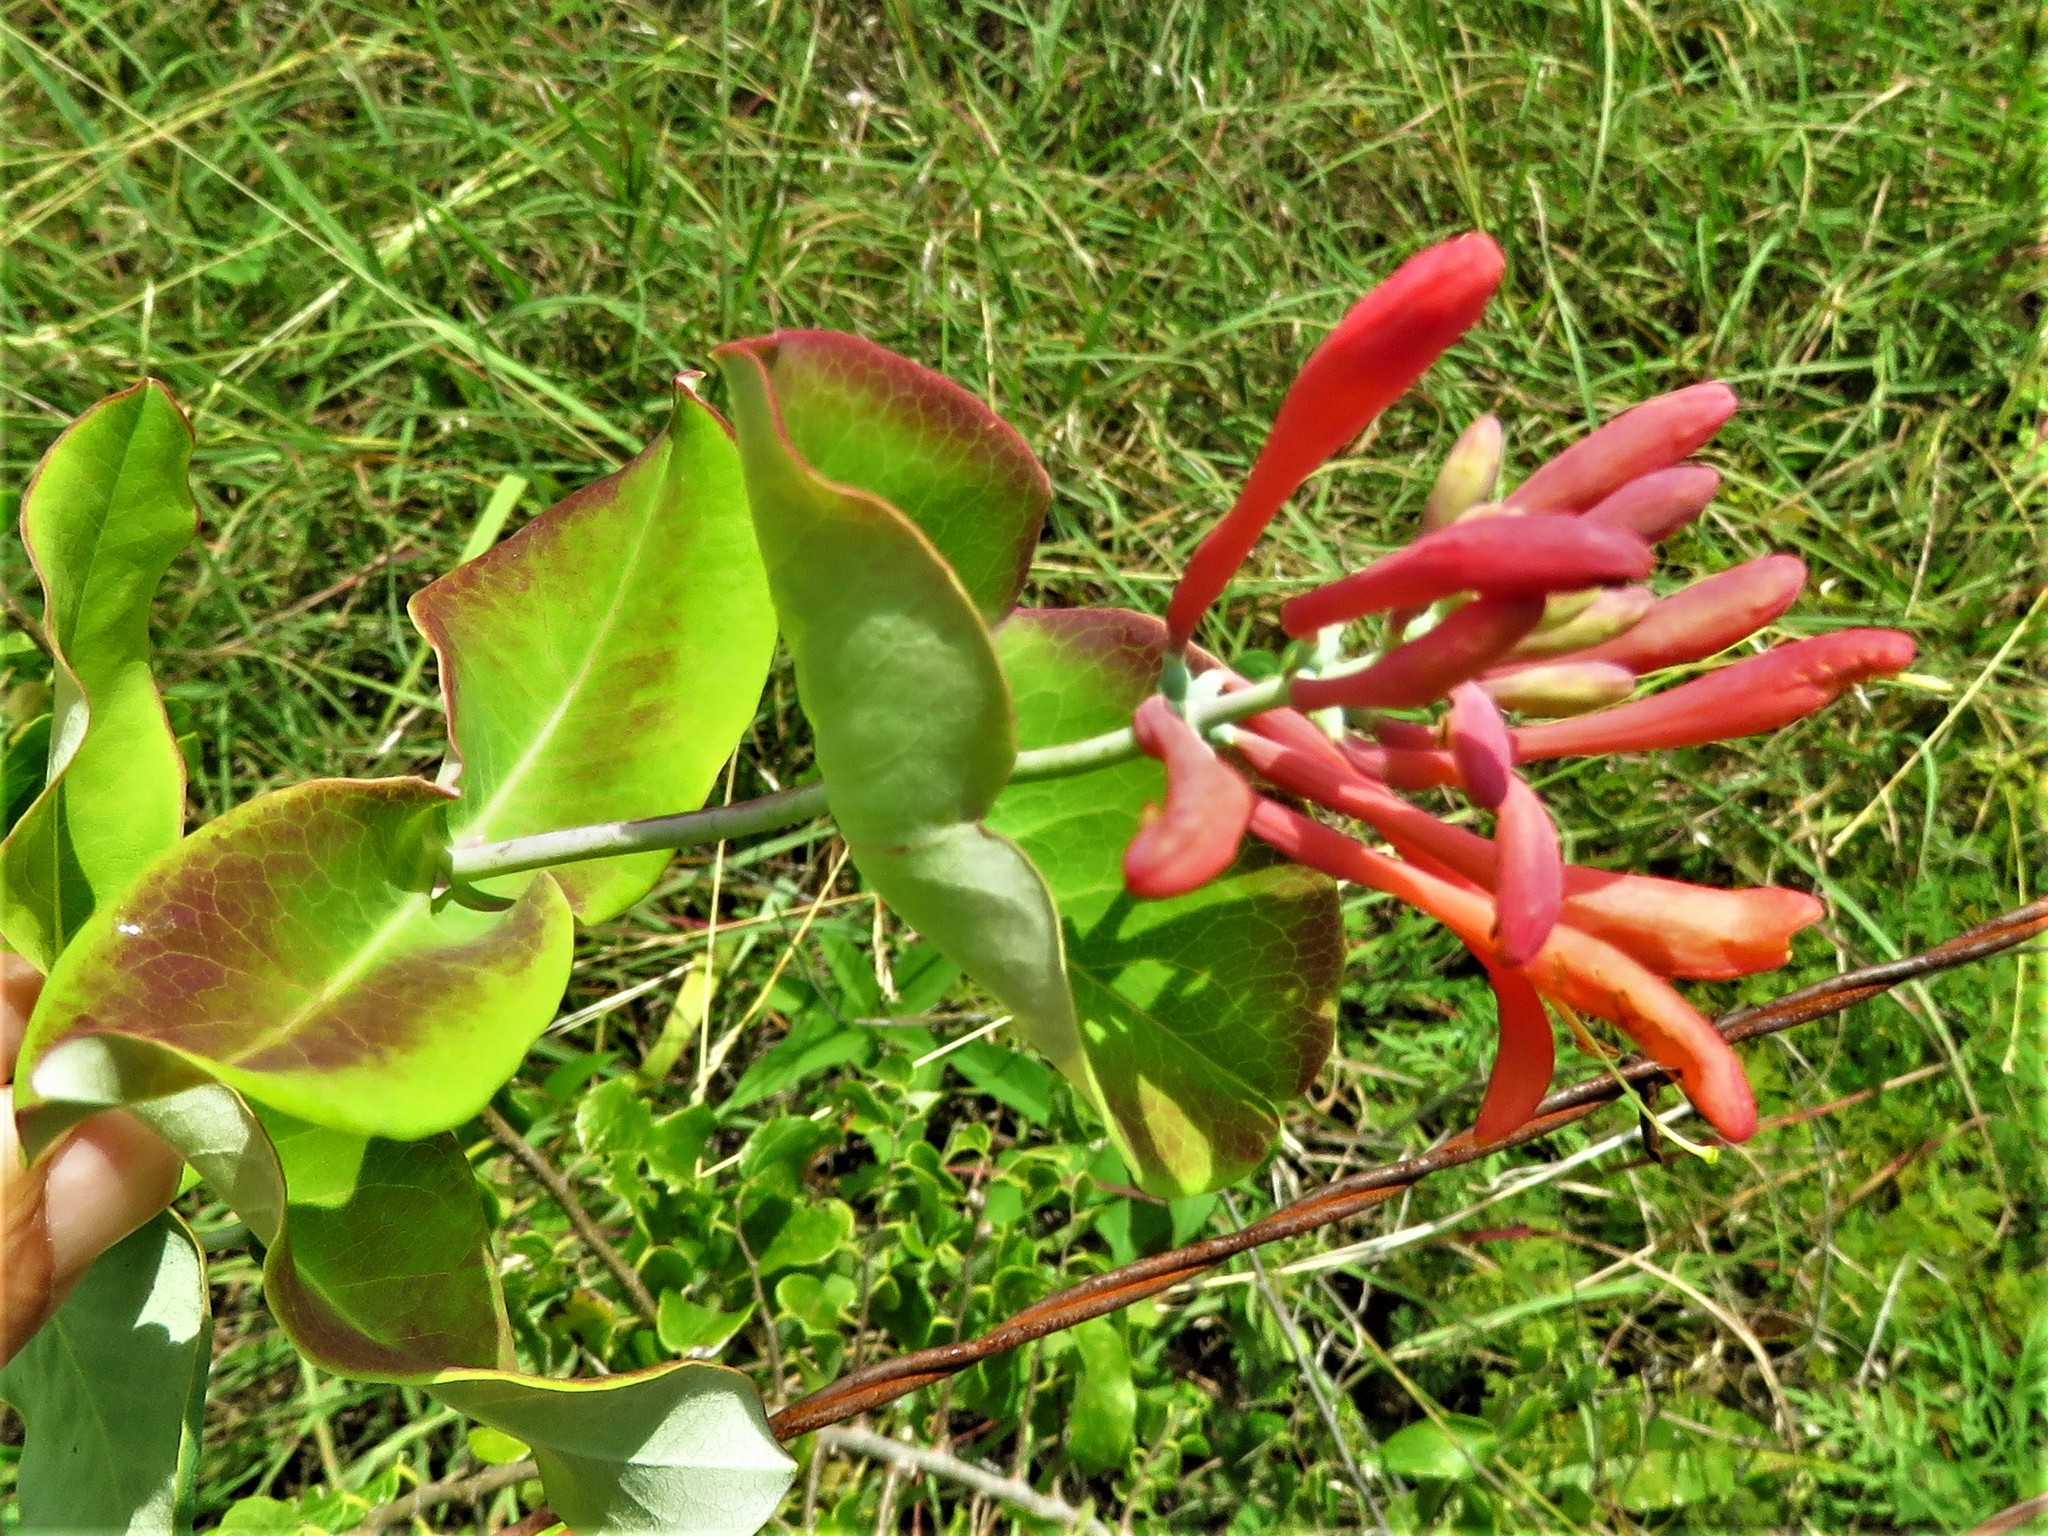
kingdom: Plantae
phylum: Tracheophyta
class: Magnoliopsida
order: Dipsacales
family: Caprifoliaceae
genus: Lonicera
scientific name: Lonicera sempervirens
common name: Coral honeysuckle
